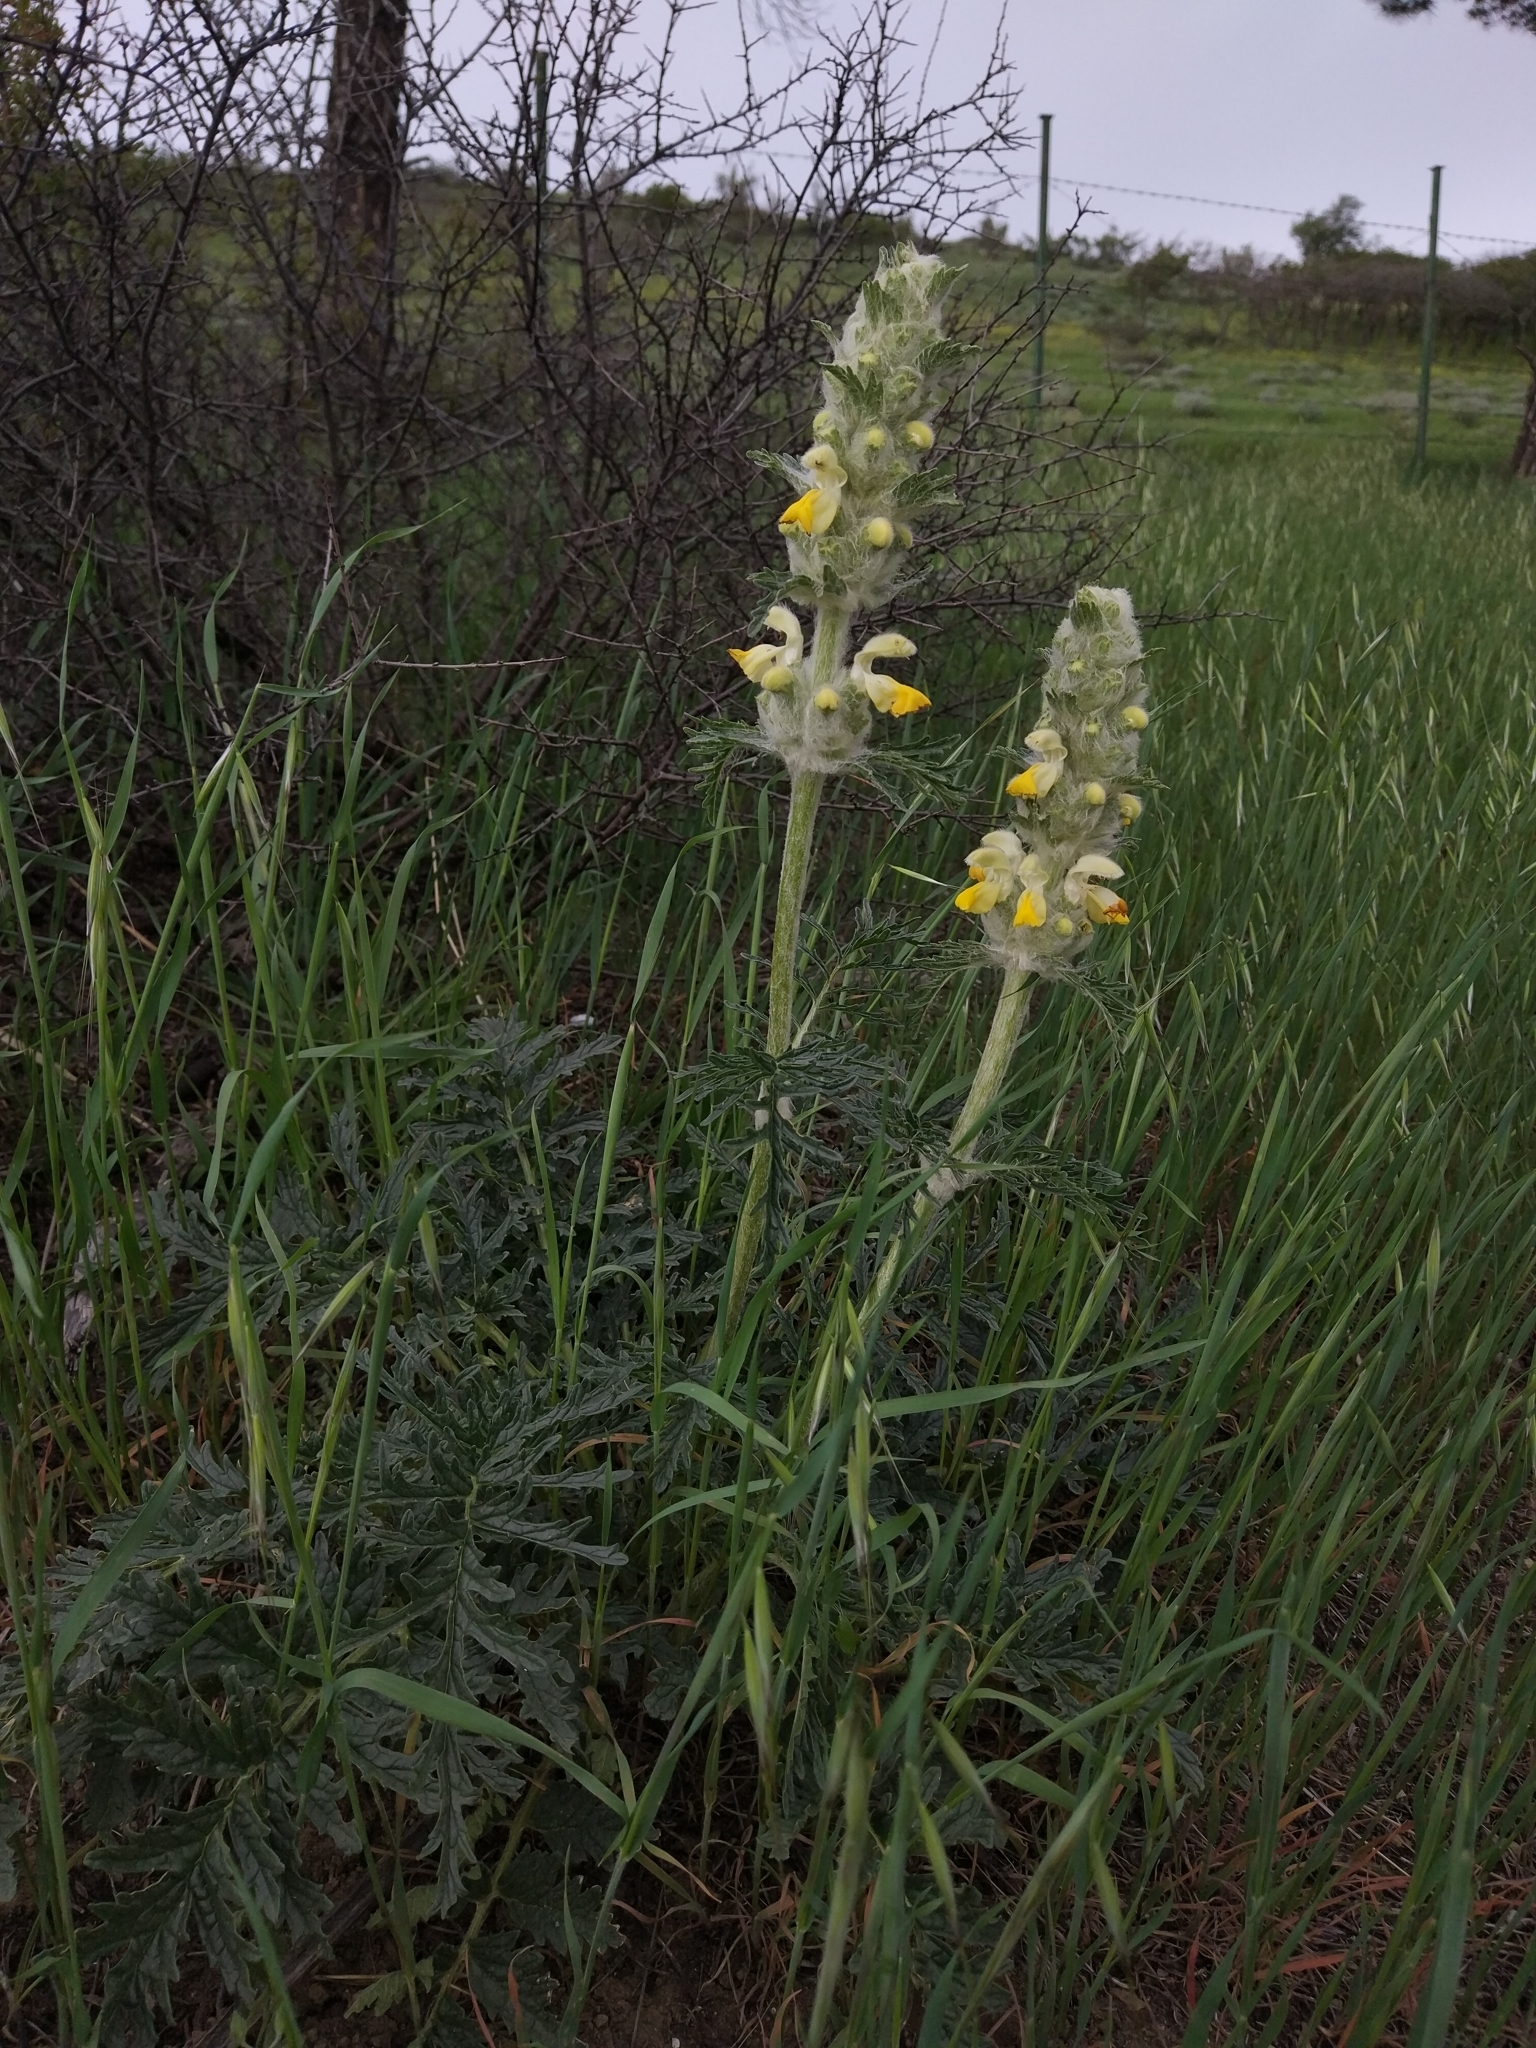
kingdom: Plantae
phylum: Tracheophyta
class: Magnoliopsida
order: Lamiales
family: Lamiaceae
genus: Phlomoides
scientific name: Phlomoides laciniata
